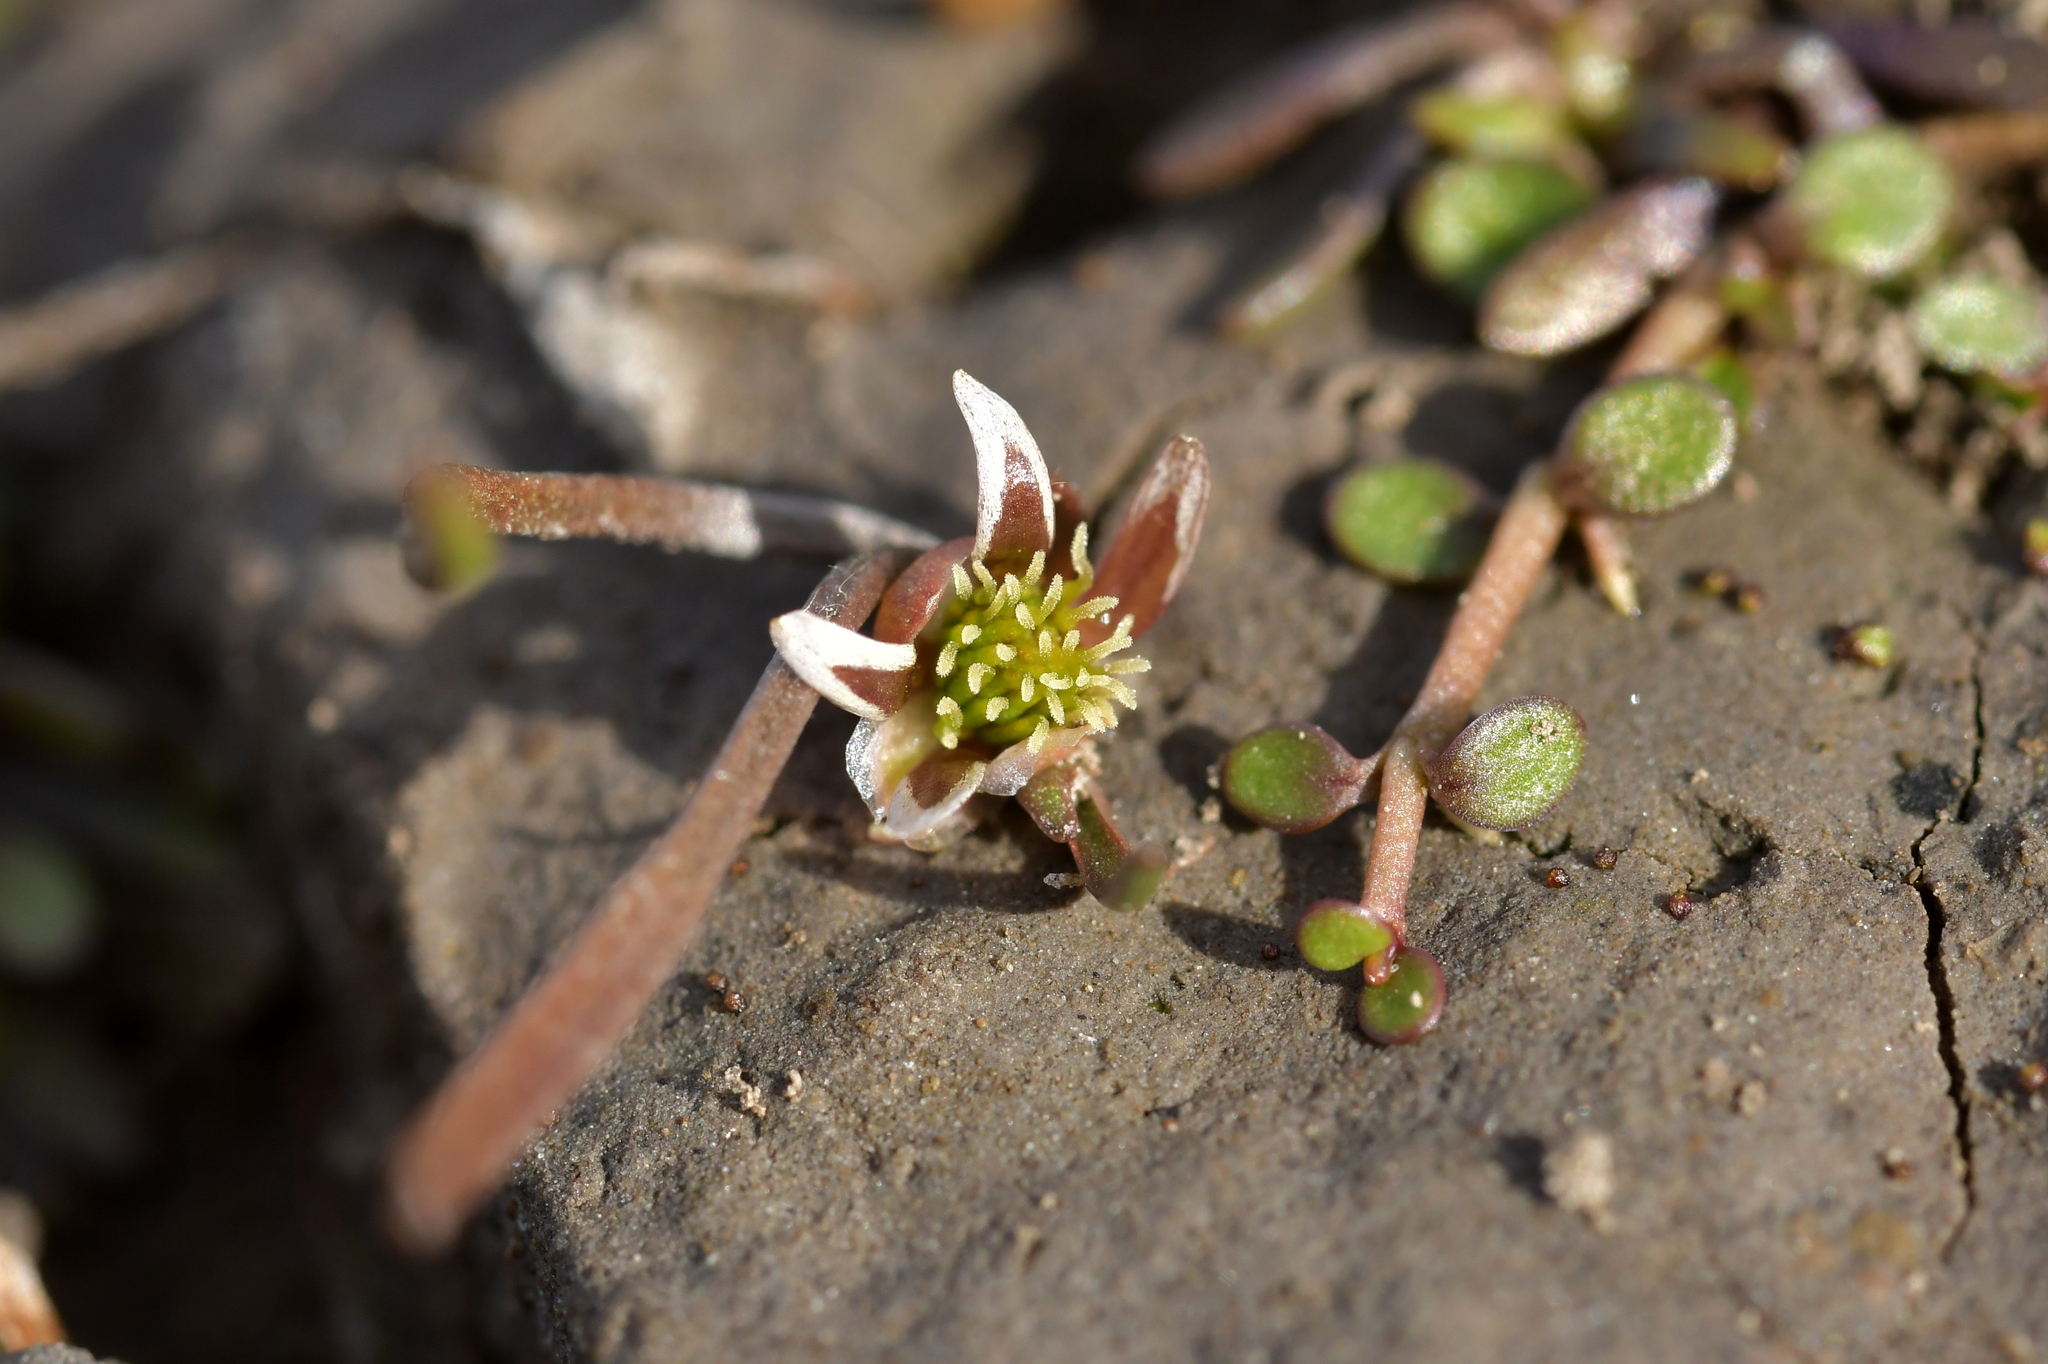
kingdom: Plantae
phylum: Tracheophyta
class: Magnoliopsida
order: Ranunculales
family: Ranunculaceae
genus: Ranunculus
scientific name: Ranunculus limosella
